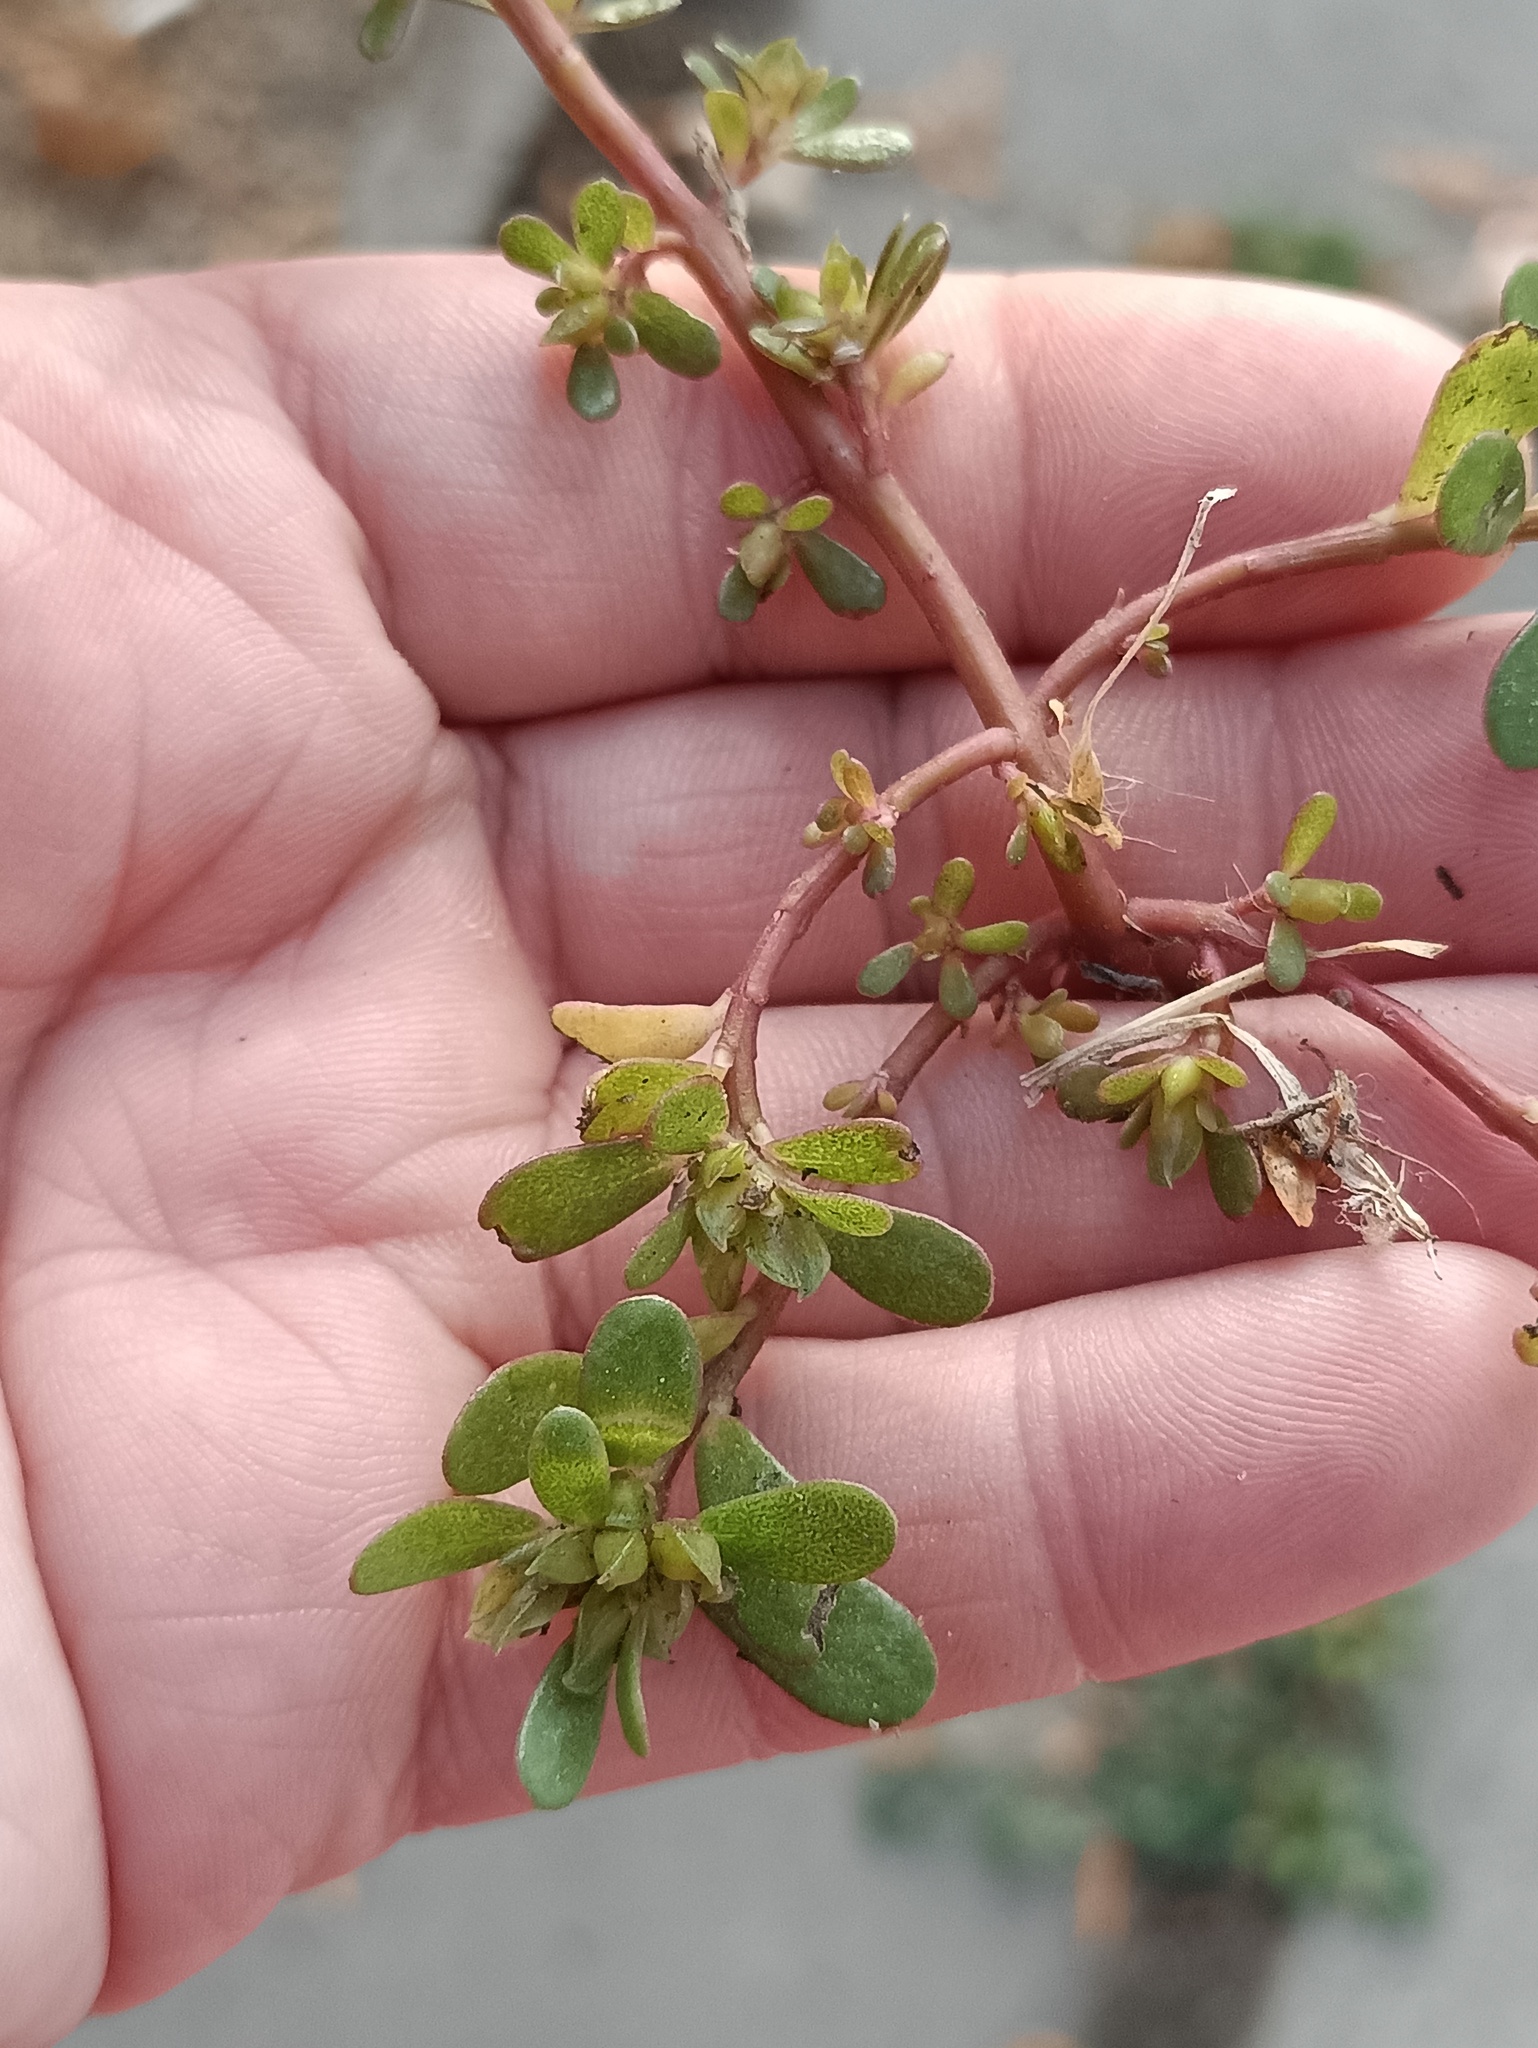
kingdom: Plantae
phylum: Tracheophyta
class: Magnoliopsida
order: Caryophyllales
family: Portulacaceae
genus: Portulaca
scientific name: Portulaca oleracea
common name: Common purslane
